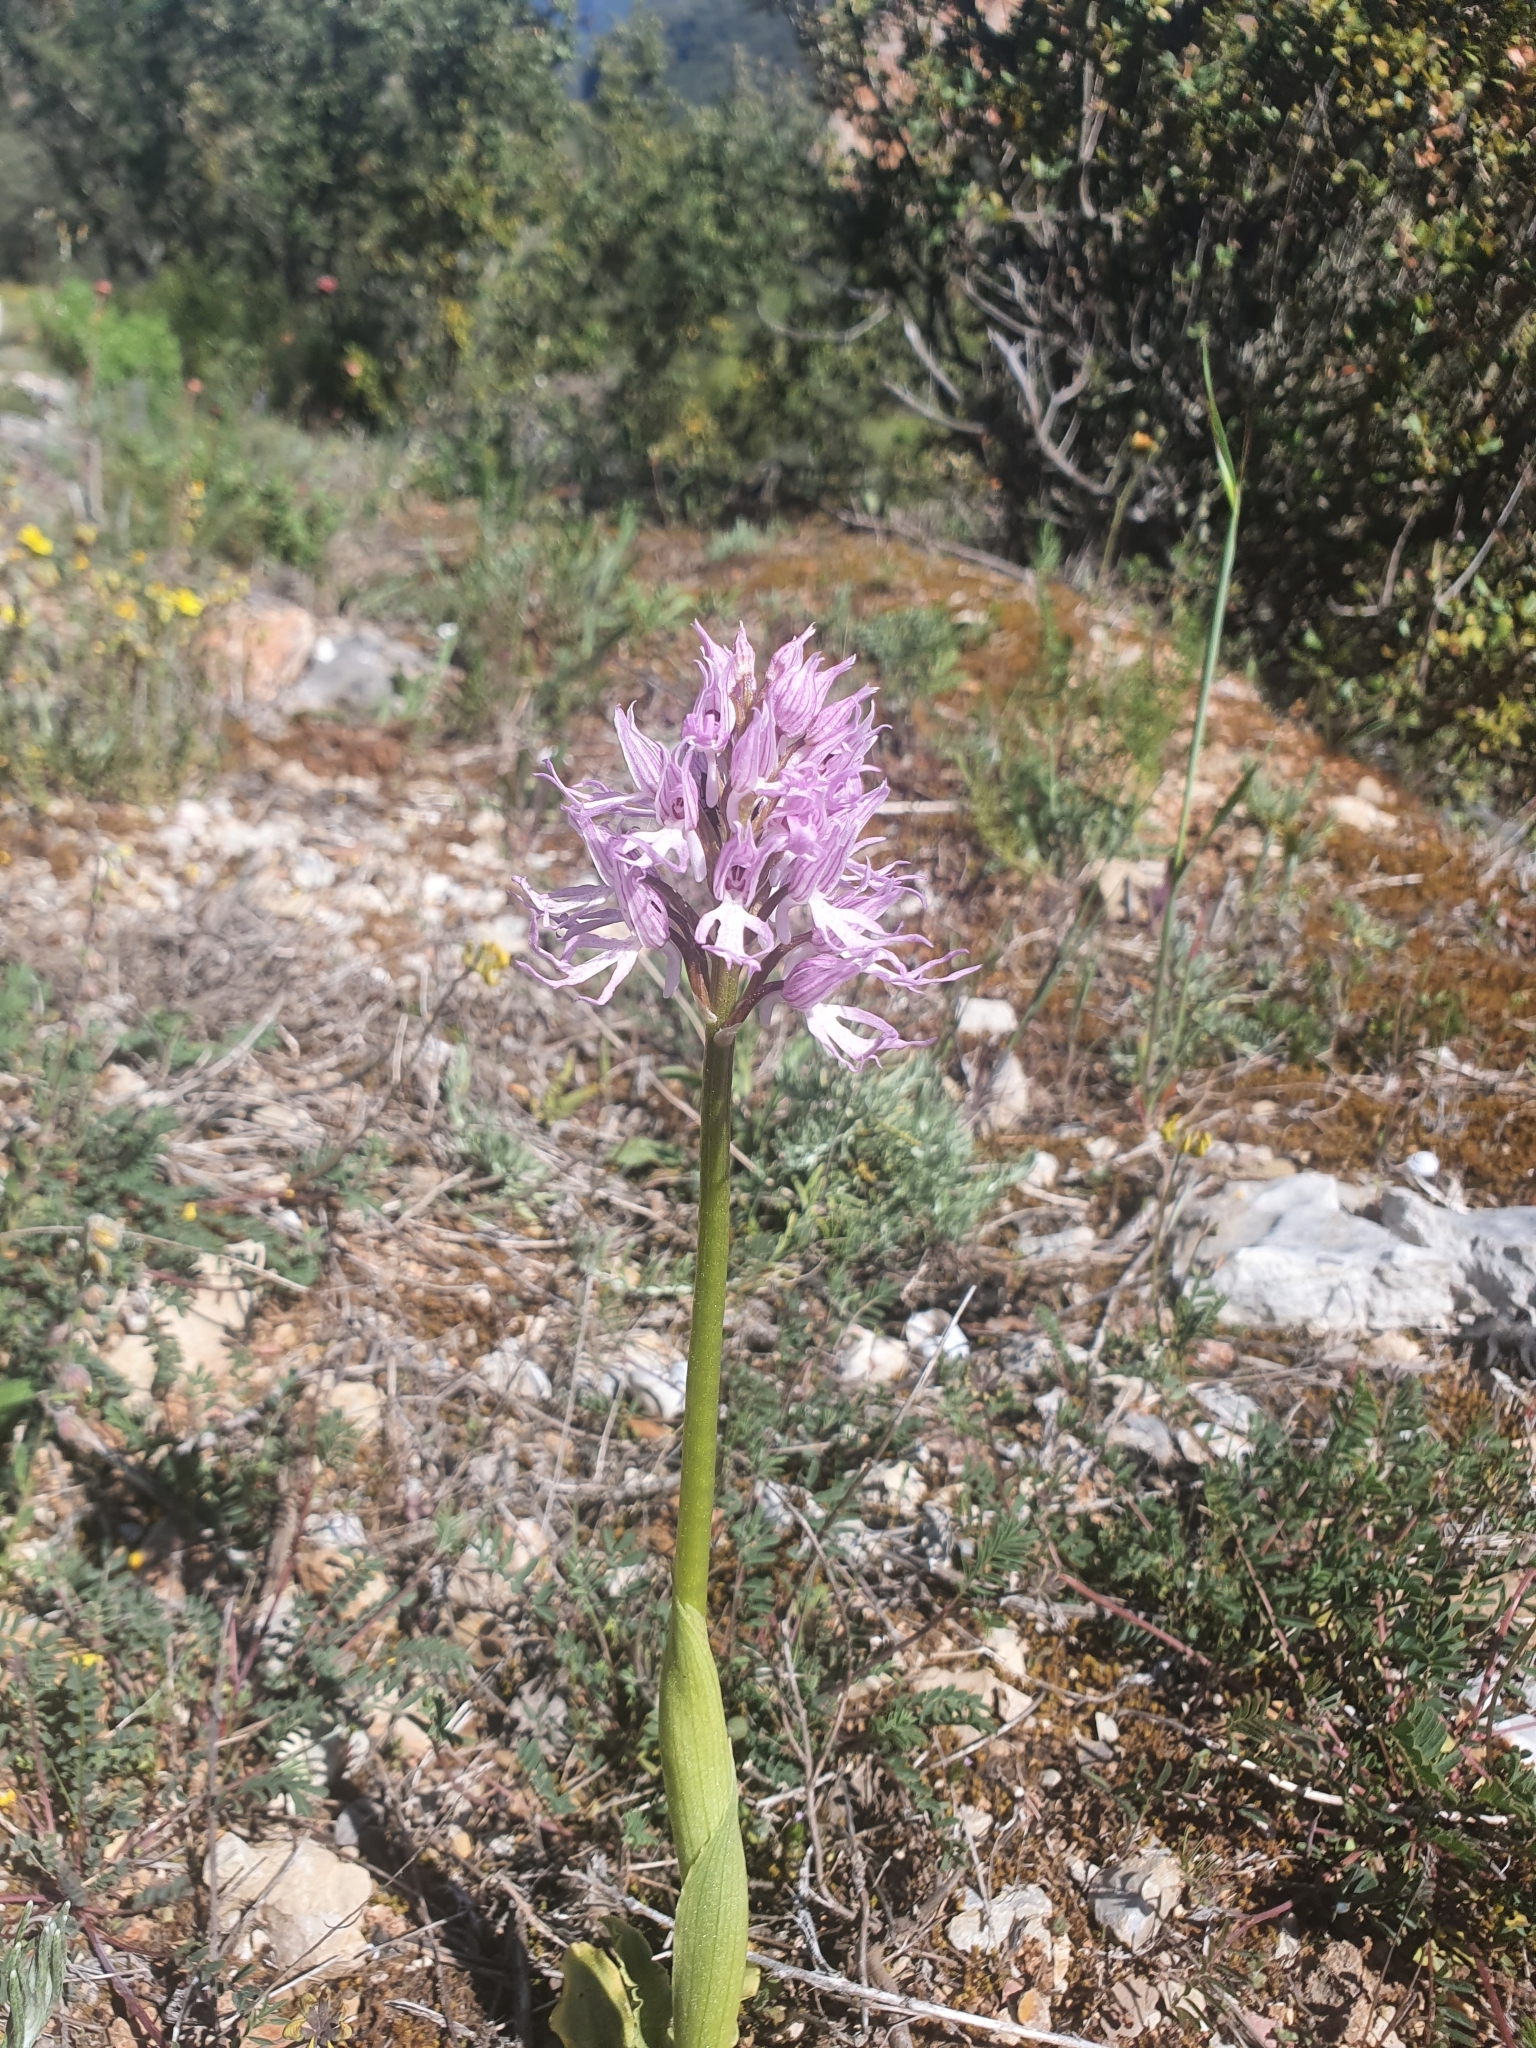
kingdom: Plantae
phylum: Tracheophyta
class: Liliopsida
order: Asparagales
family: Orchidaceae
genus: Orchis
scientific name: Orchis italica
